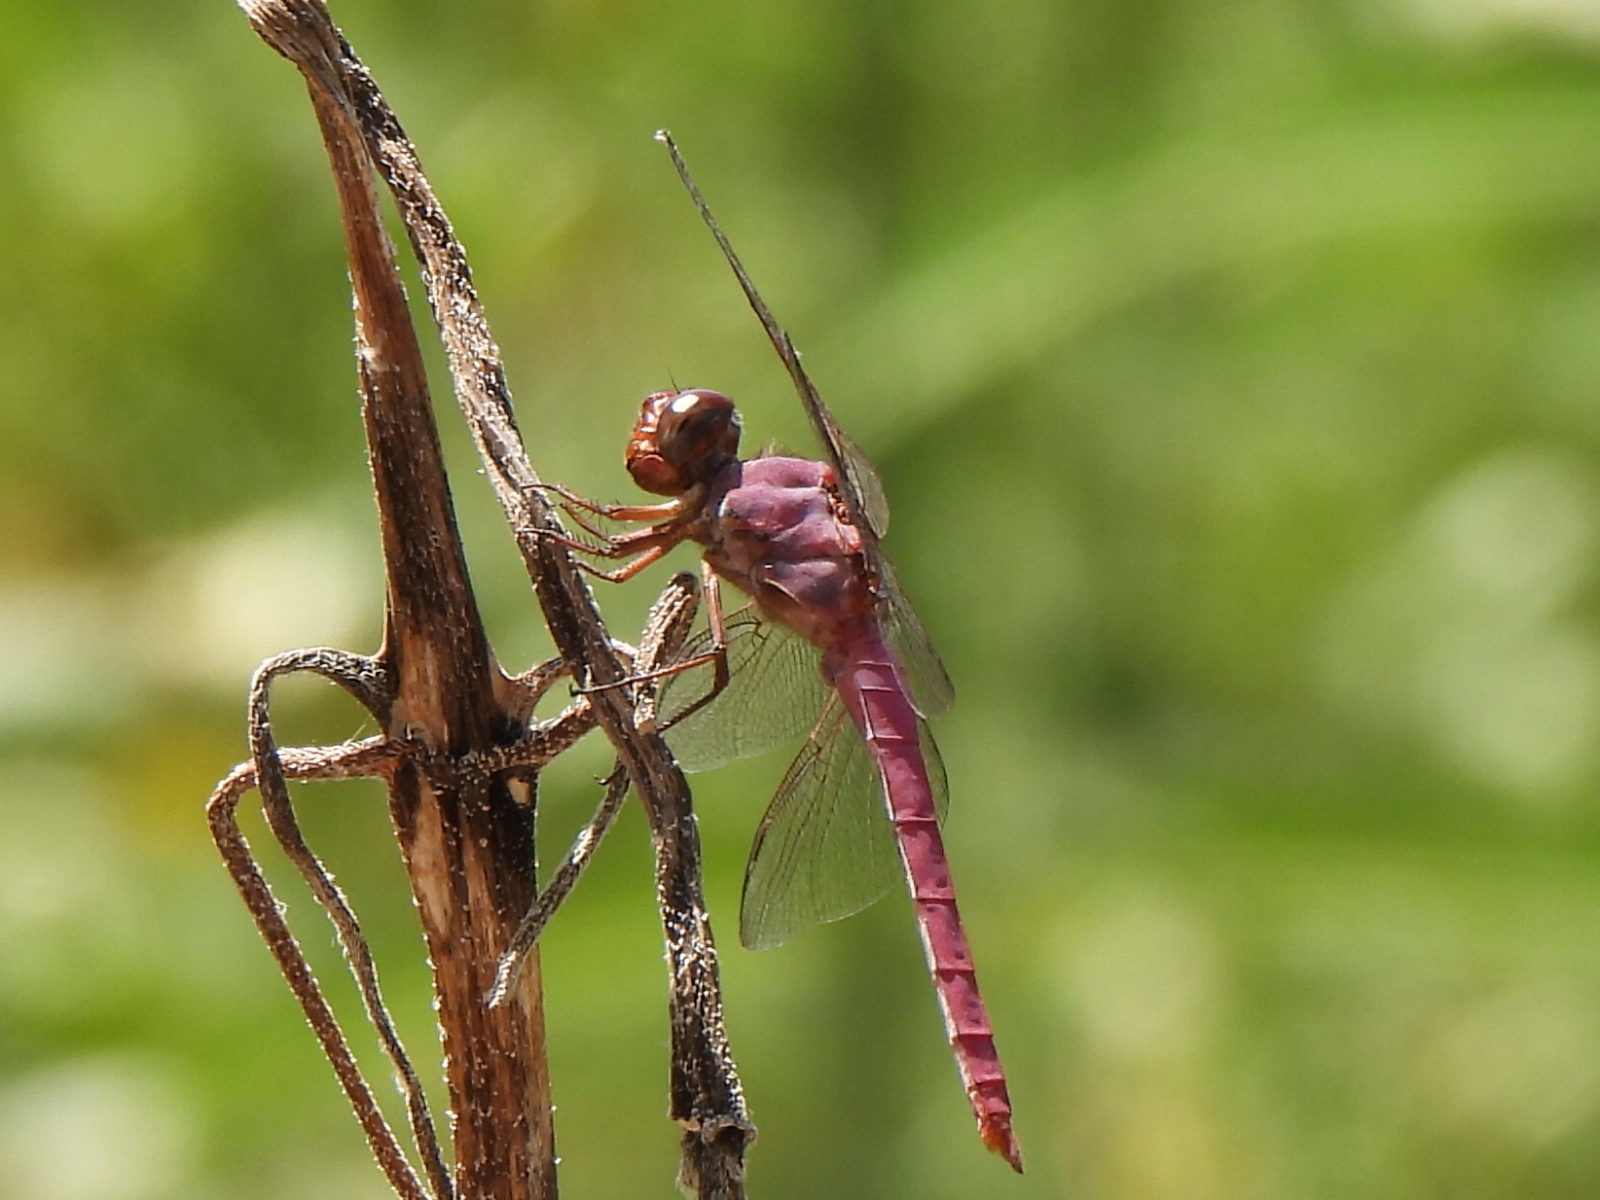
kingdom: Animalia
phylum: Arthropoda
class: Insecta
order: Odonata
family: Libellulidae
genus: Orthemis
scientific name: Orthemis ferruginea
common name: Roseate skimmer
